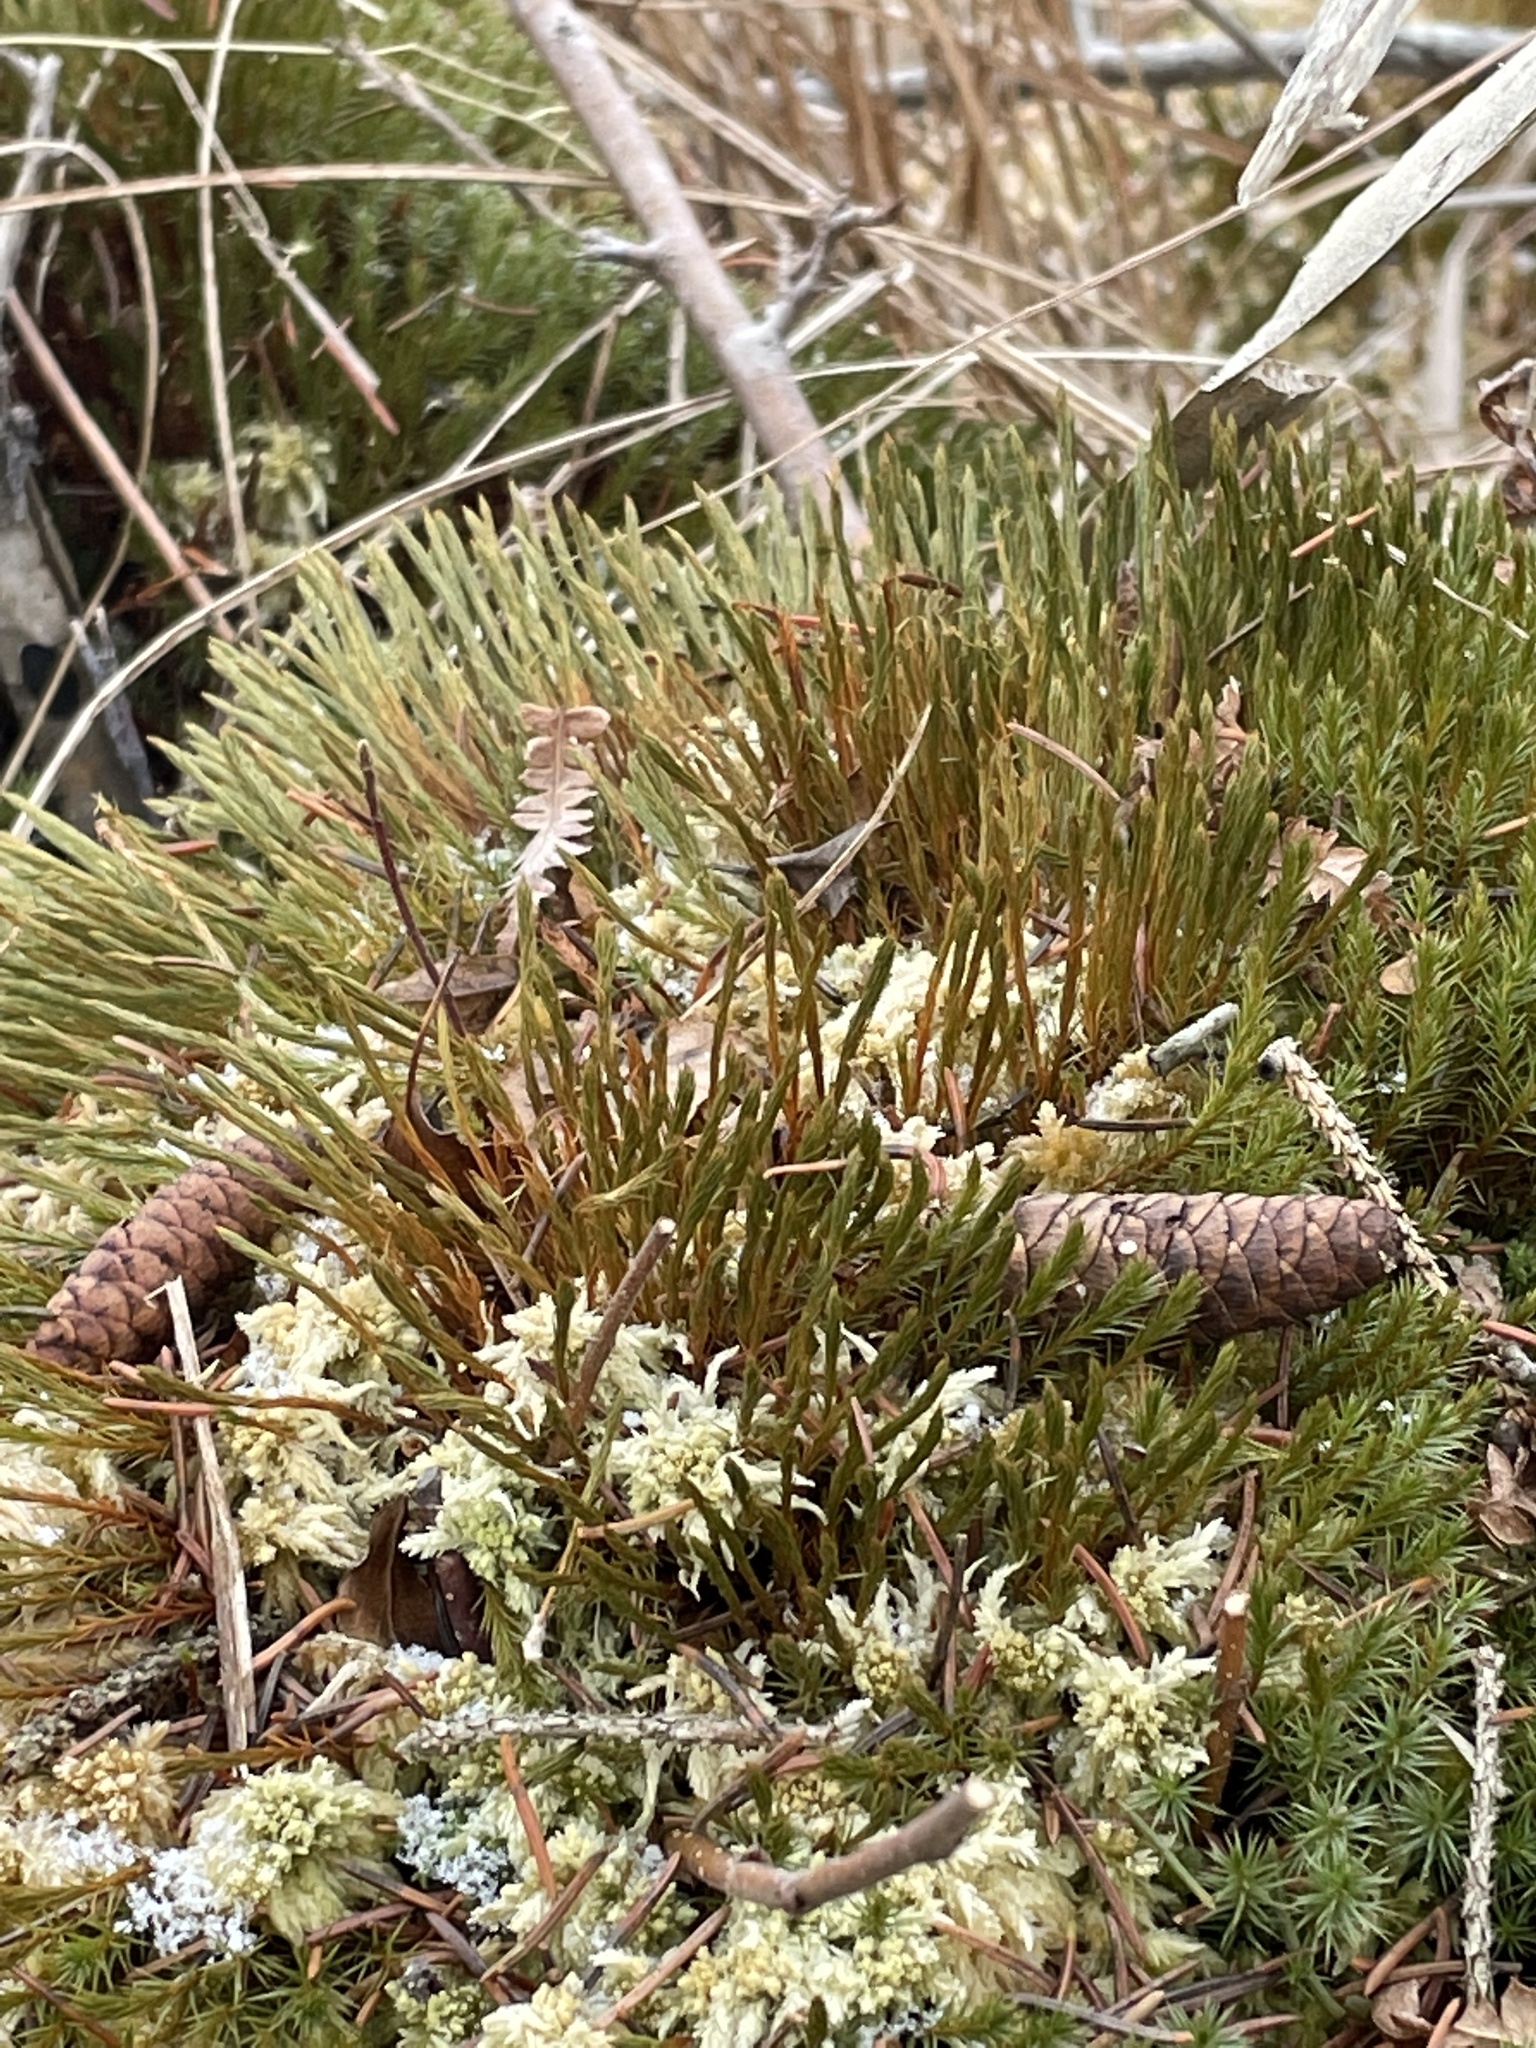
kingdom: Plantae
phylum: Bryophyta
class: Polytrichopsida
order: Polytrichales
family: Polytrichaceae
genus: Polytrichum
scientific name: Polytrichum strictum
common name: Bog haircap moss
